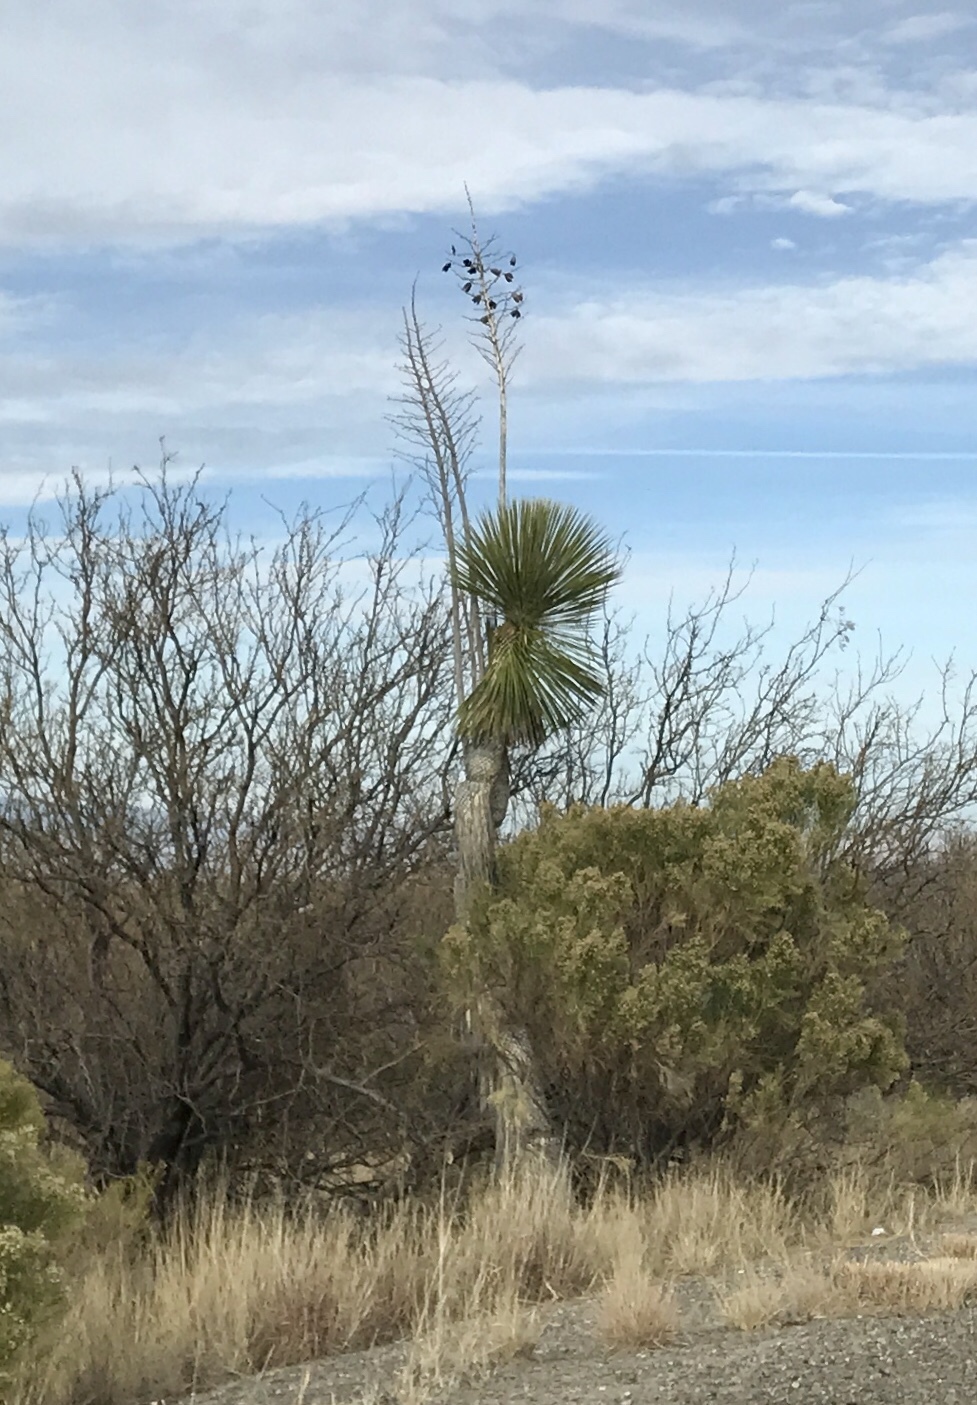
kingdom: Plantae
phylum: Tracheophyta
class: Liliopsida
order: Asparagales
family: Asparagaceae
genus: Yucca
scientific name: Yucca elata
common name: Palmella
